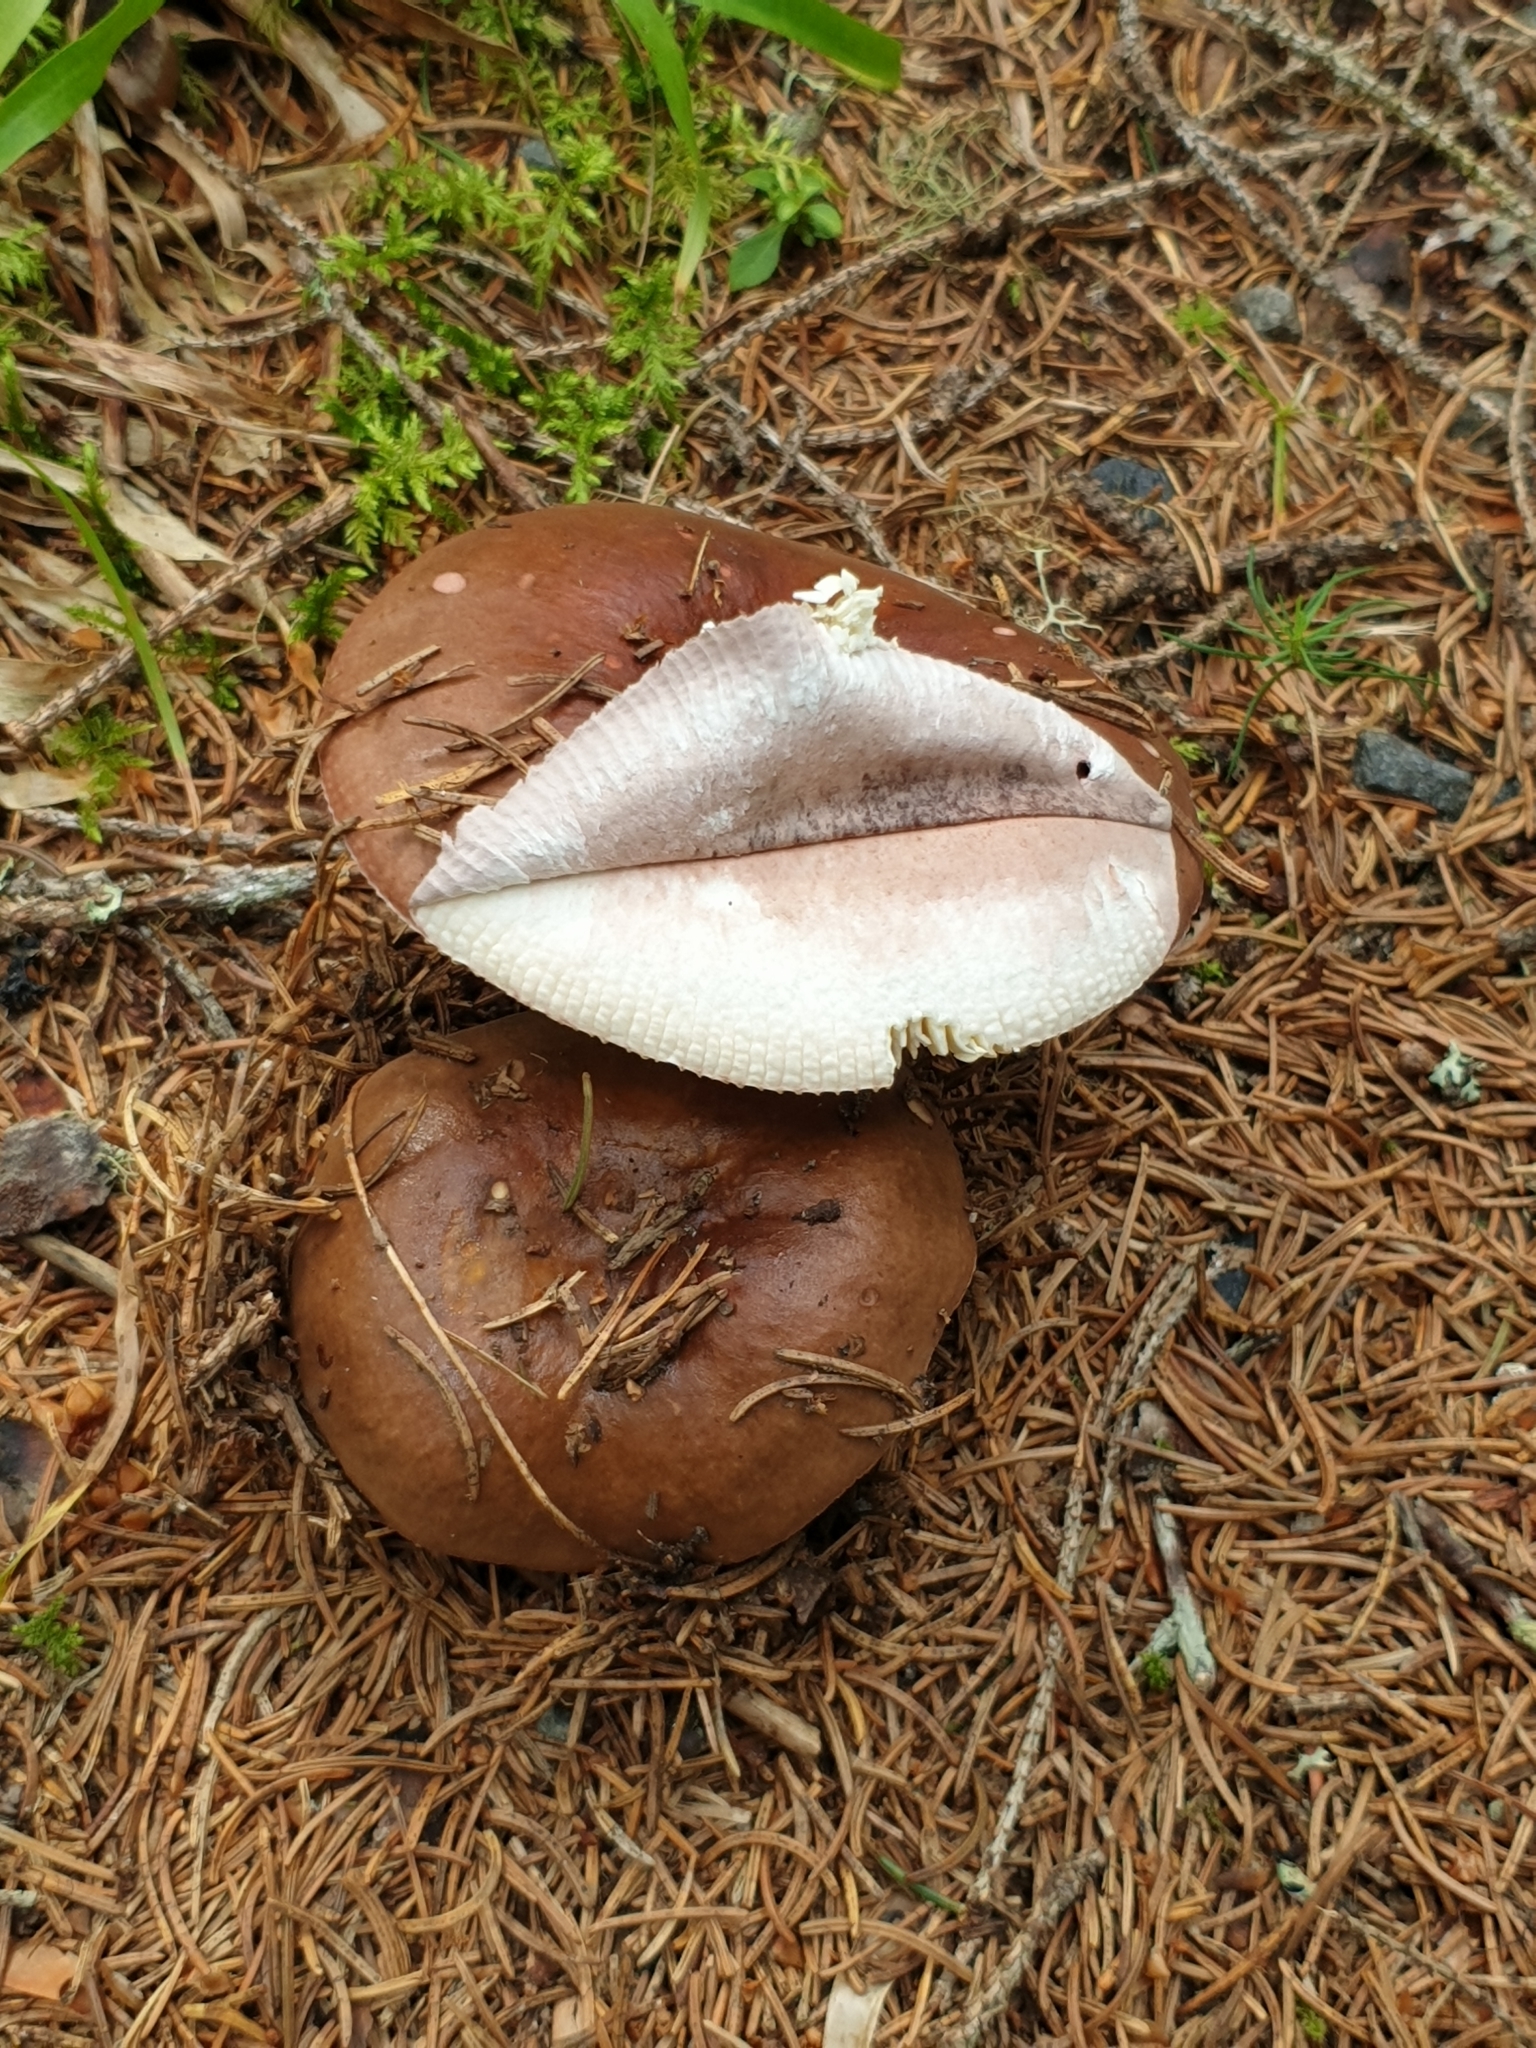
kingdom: Fungi
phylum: Basidiomycota
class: Agaricomycetes
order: Russulales
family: Russulaceae
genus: Russula
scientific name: Russula integra
